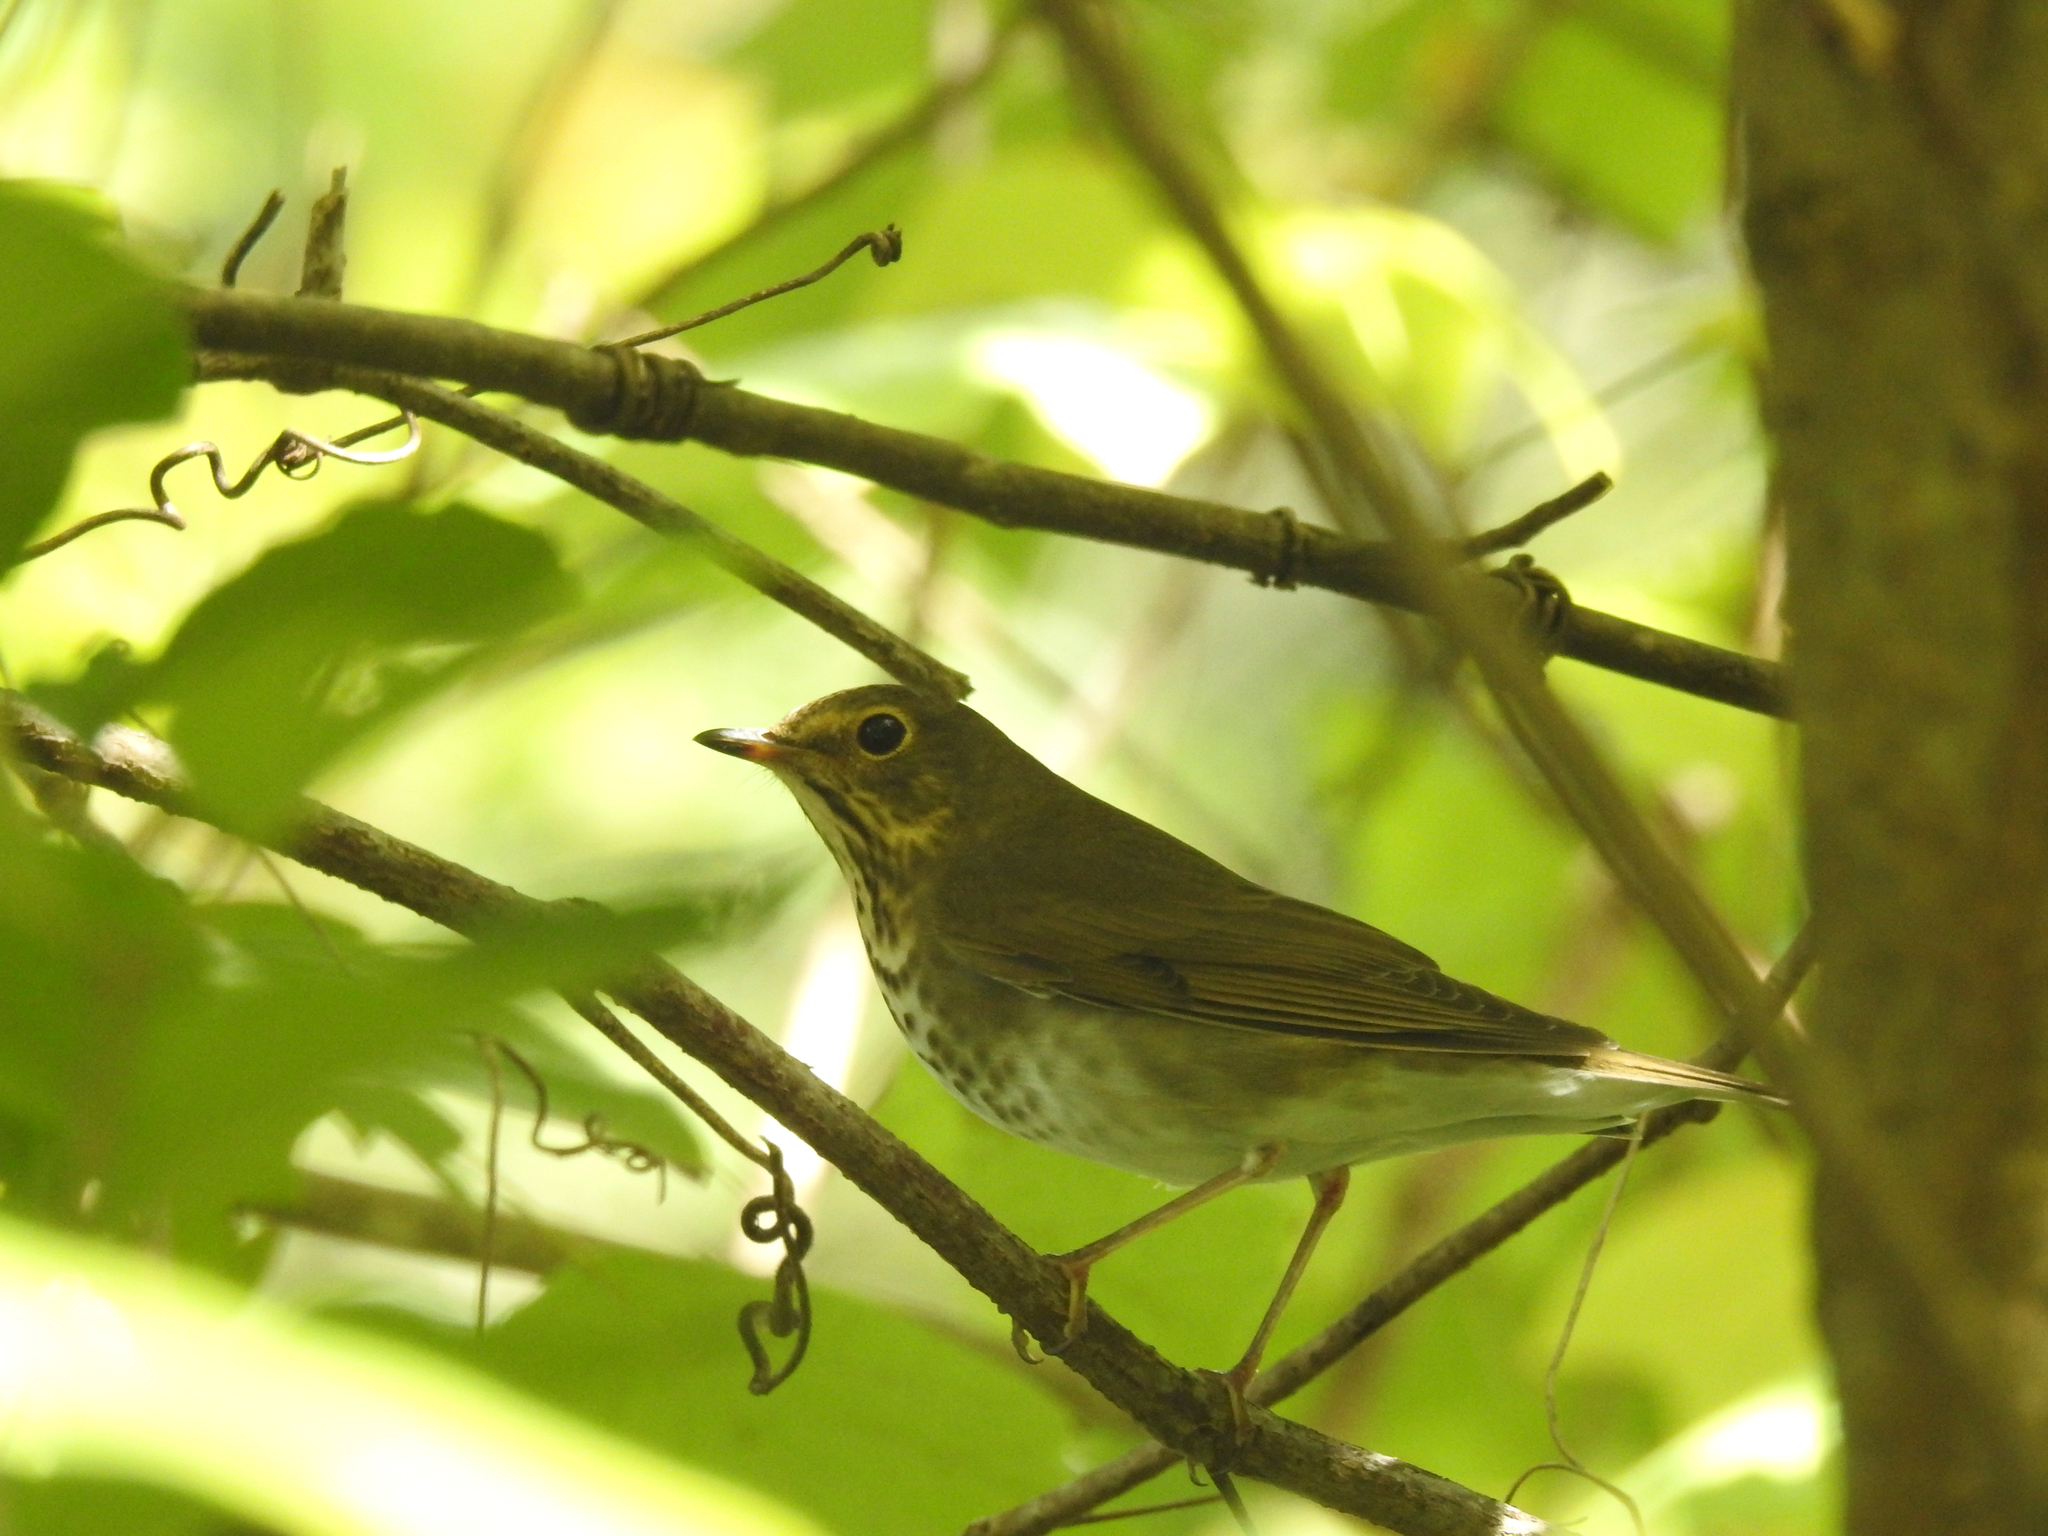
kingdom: Animalia
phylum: Chordata
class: Aves
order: Passeriformes
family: Turdidae
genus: Catharus
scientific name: Catharus ustulatus
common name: Swainson's thrush
